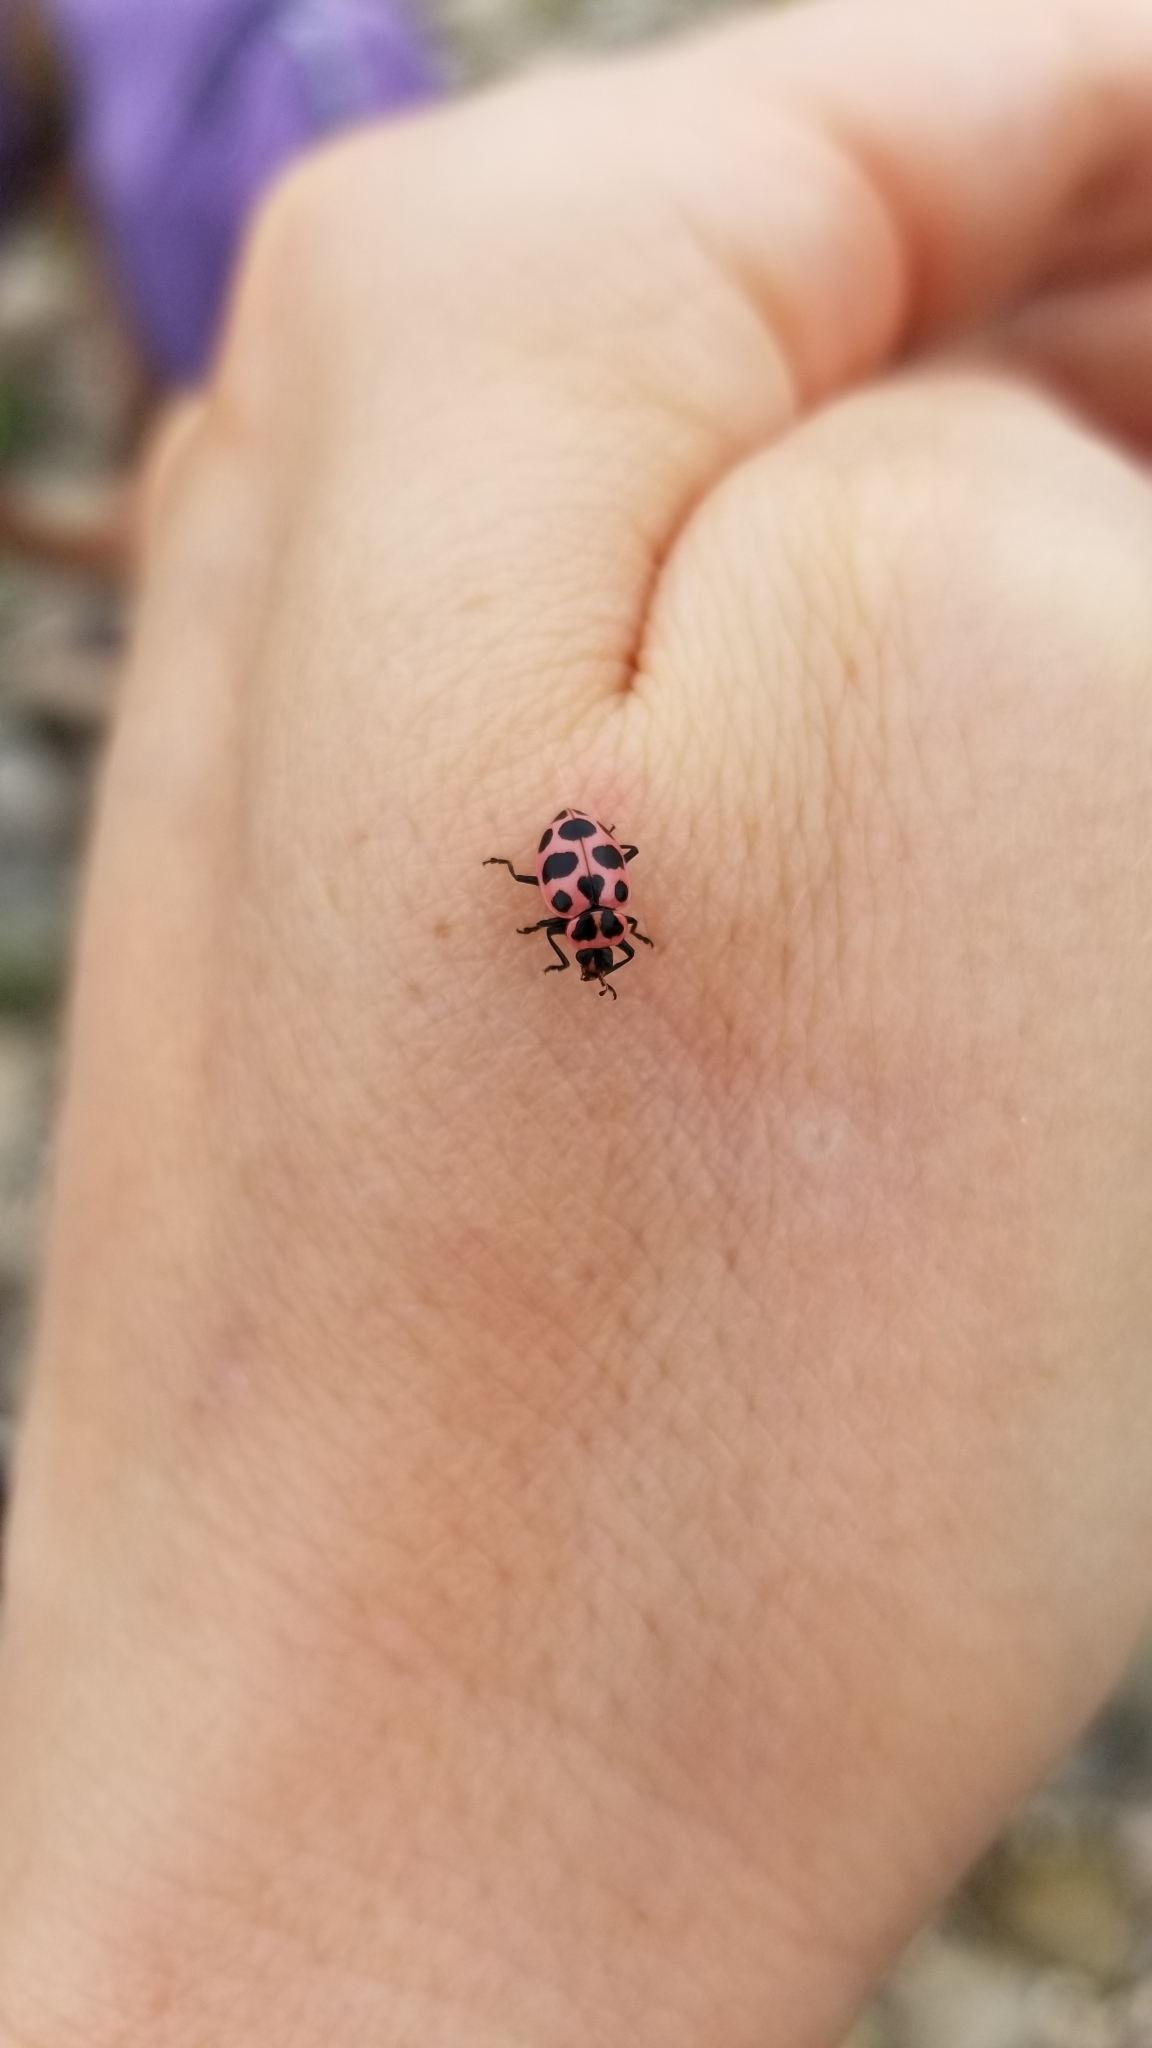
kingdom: Animalia
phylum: Arthropoda
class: Insecta
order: Coleoptera
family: Coccinellidae
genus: Coleomegilla
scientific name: Coleomegilla maculata
